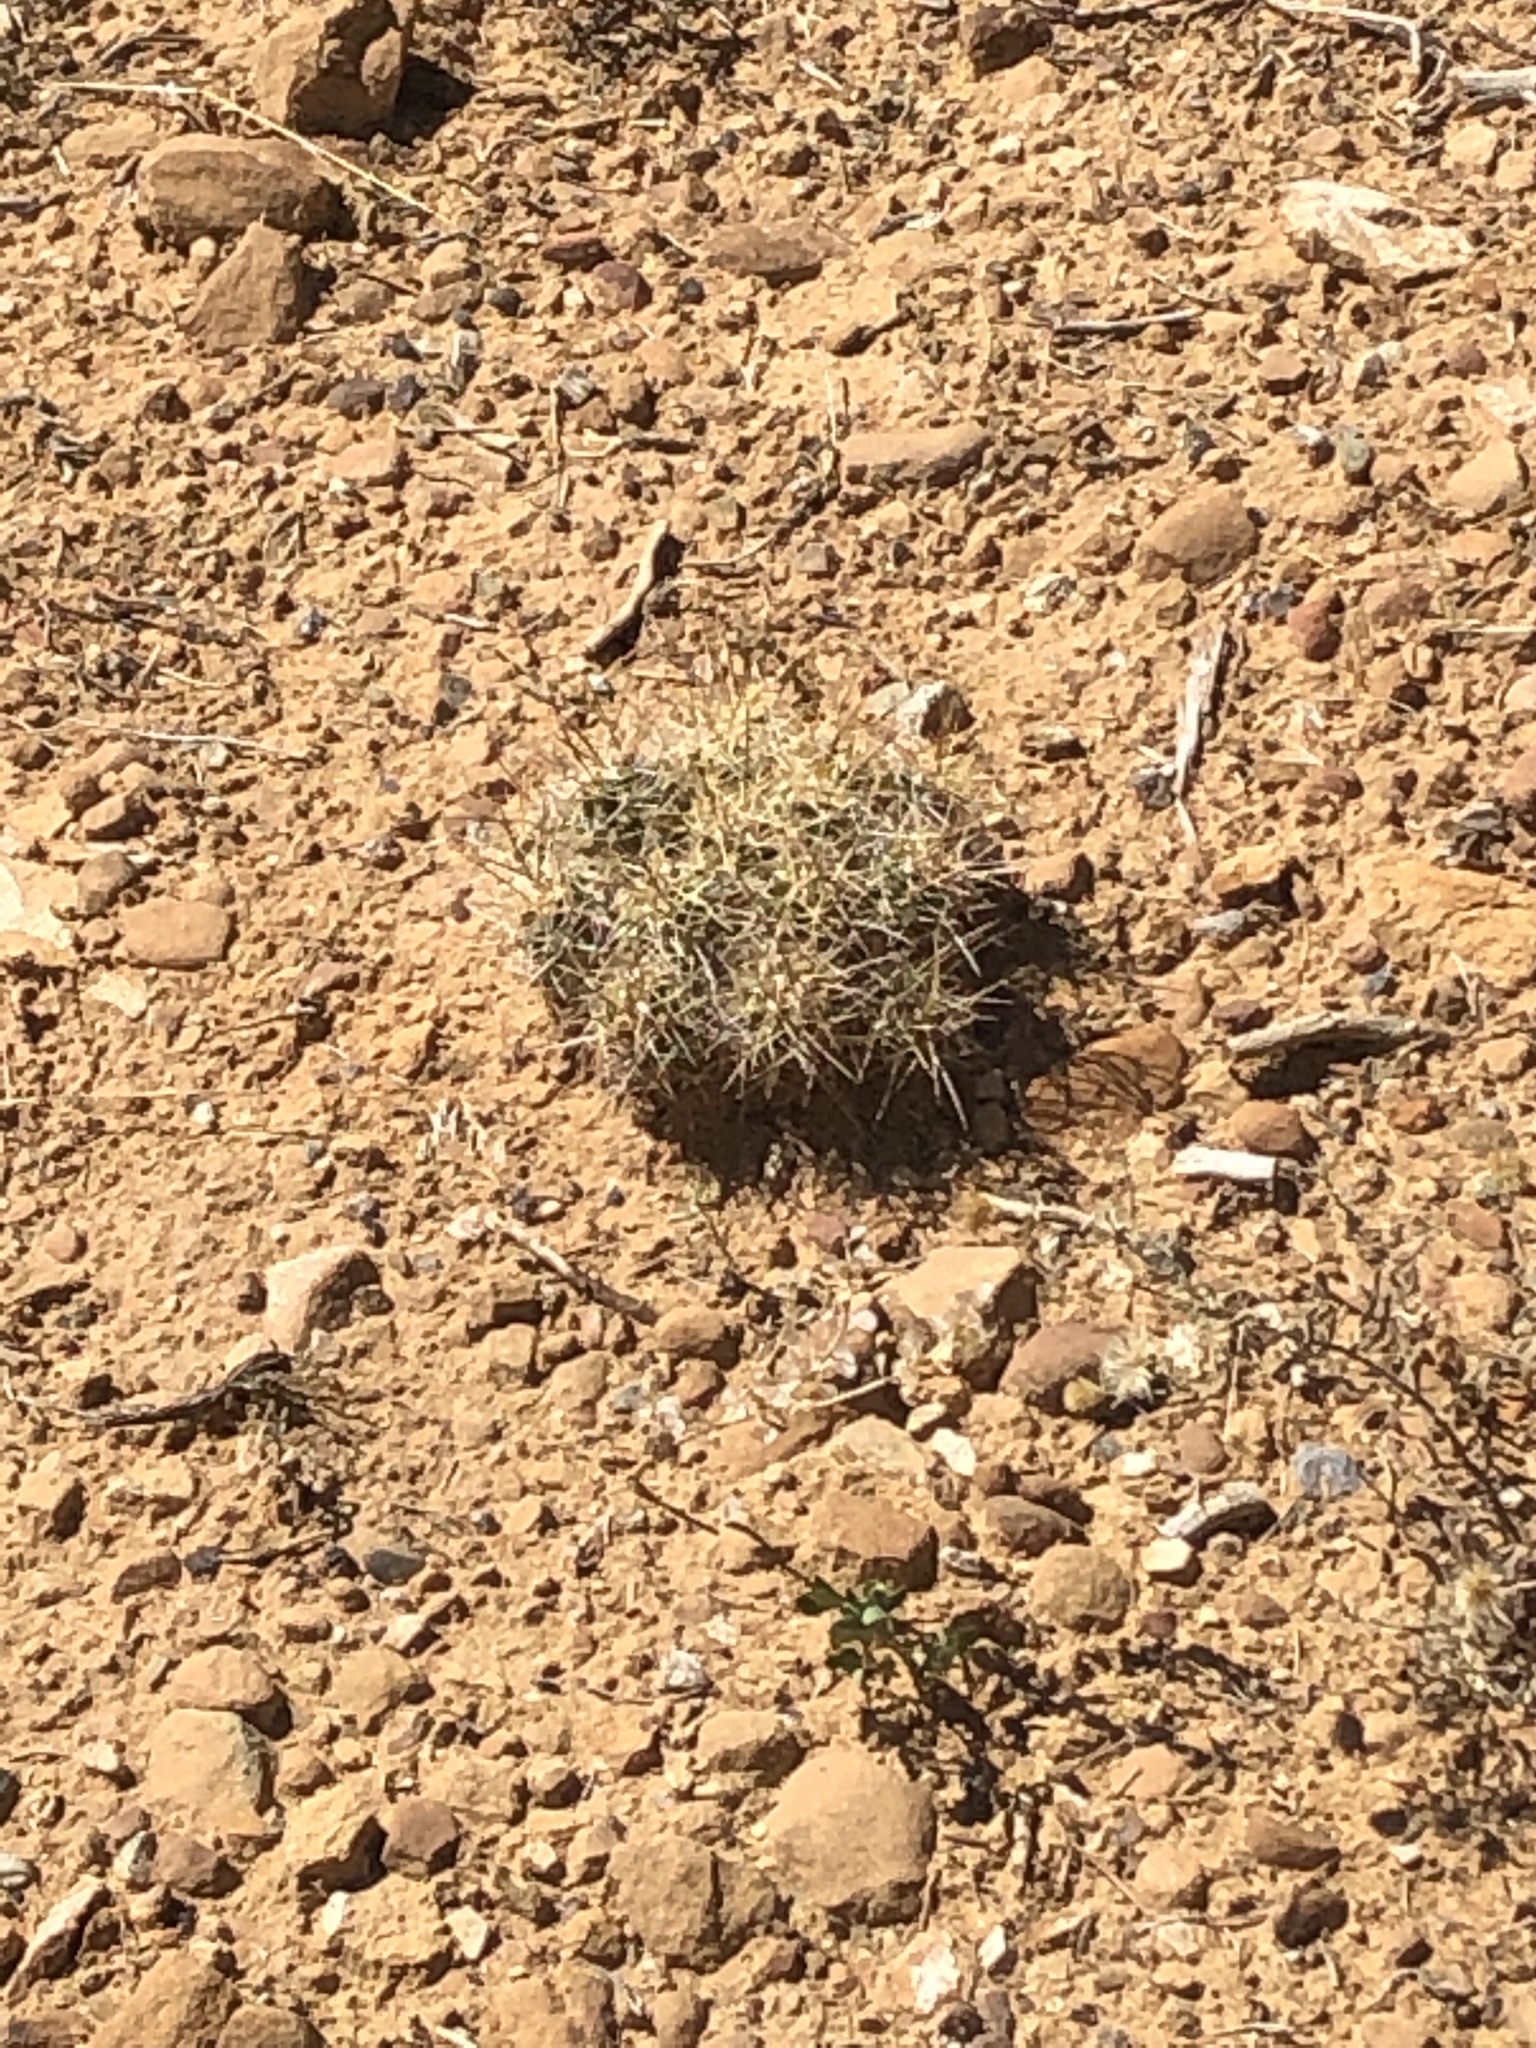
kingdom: Plantae
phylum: Tracheophyta
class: Magnoliopsida
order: Caryophyllales
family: Cactaceae
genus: Echinocereus
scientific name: Echinocereus triglochidiatus
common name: Claretcup hedgehog
